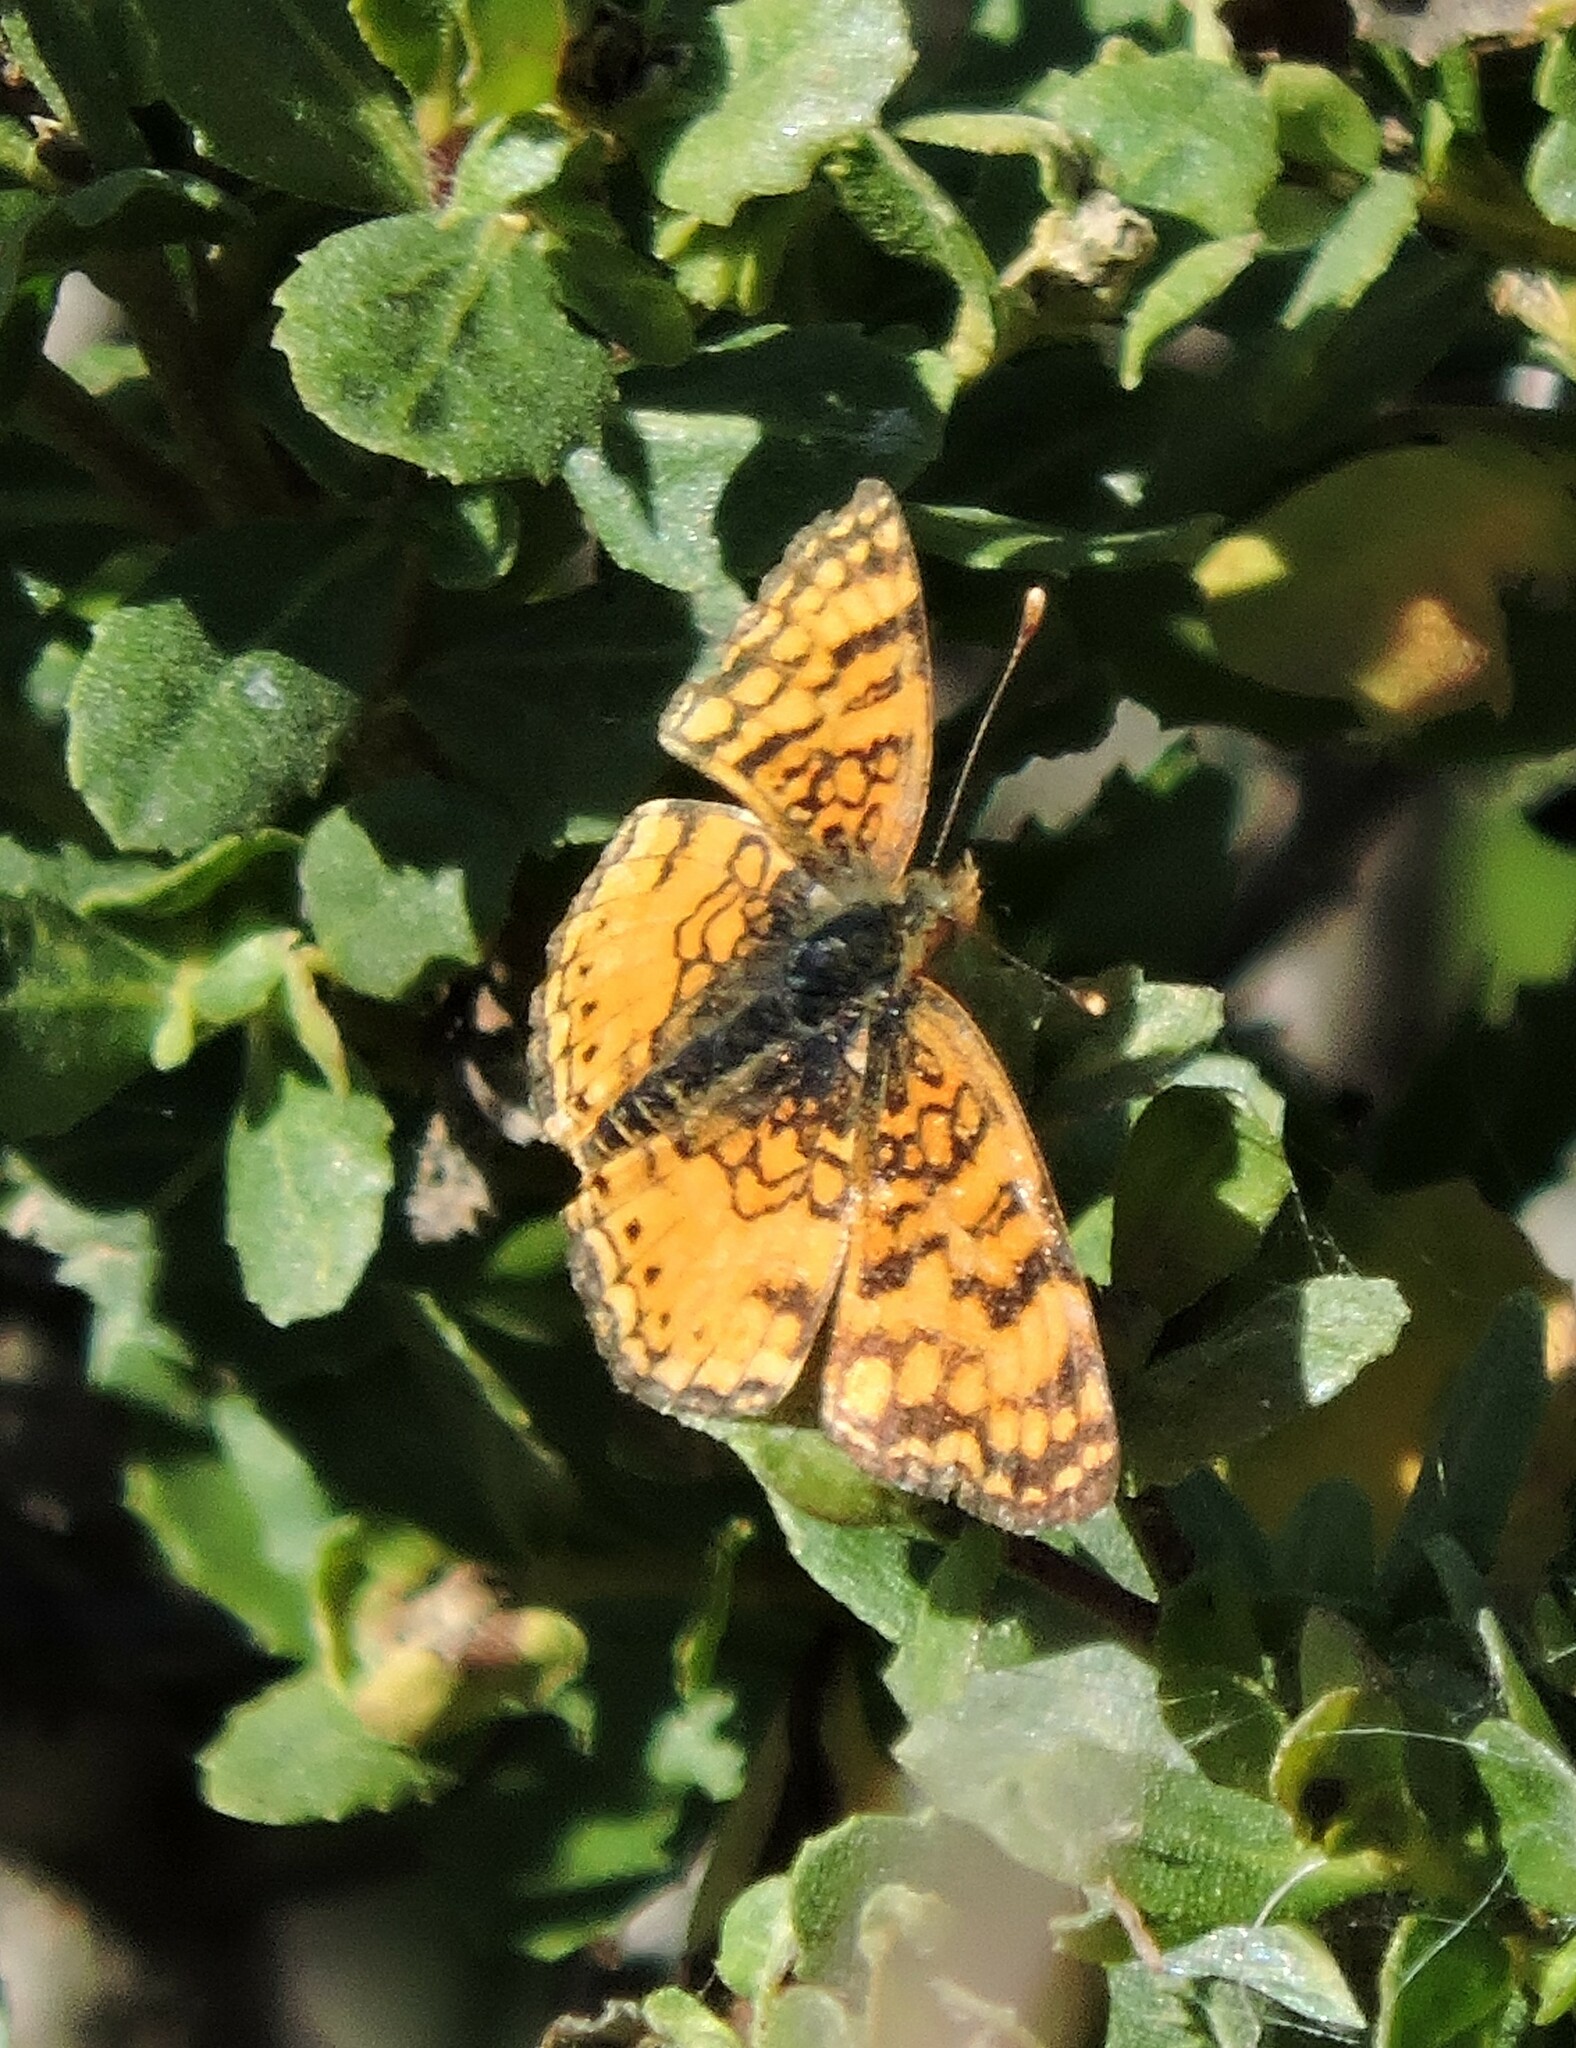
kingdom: Animalia
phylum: Arthropoda
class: Insecta
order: Lepidoptera
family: Nymphalidae
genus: Eresia
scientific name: Eresia aveyrona
